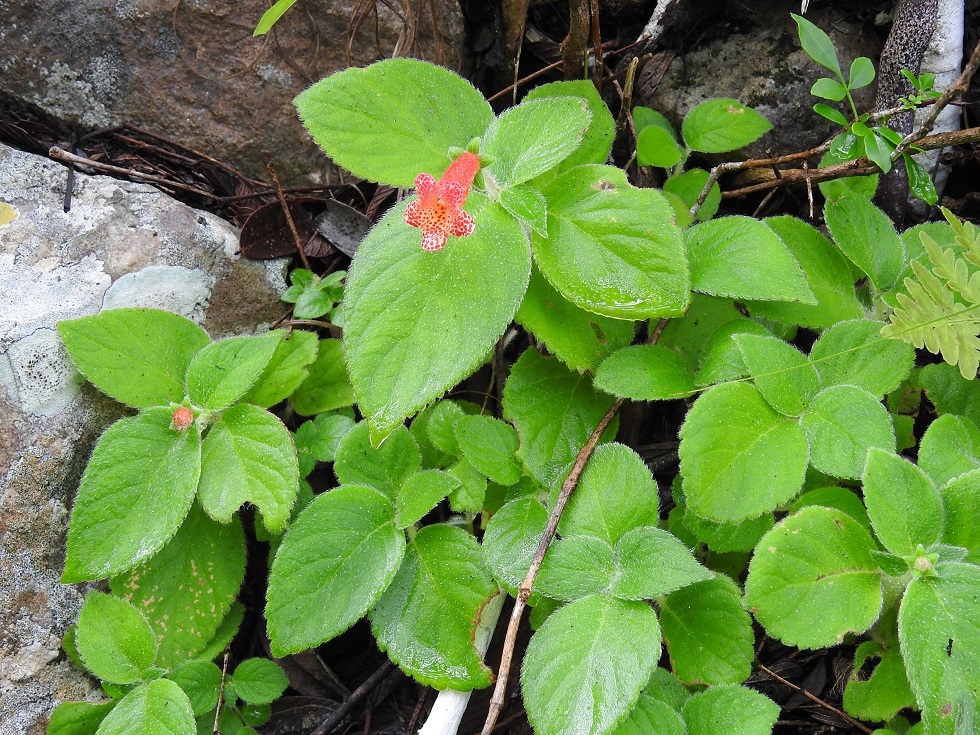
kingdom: Plantae
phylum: Tracheophyta
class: Magnoliopsida
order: Lamiales
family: Gesneriaceae
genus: Kohleria
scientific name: Kohleria rugata
